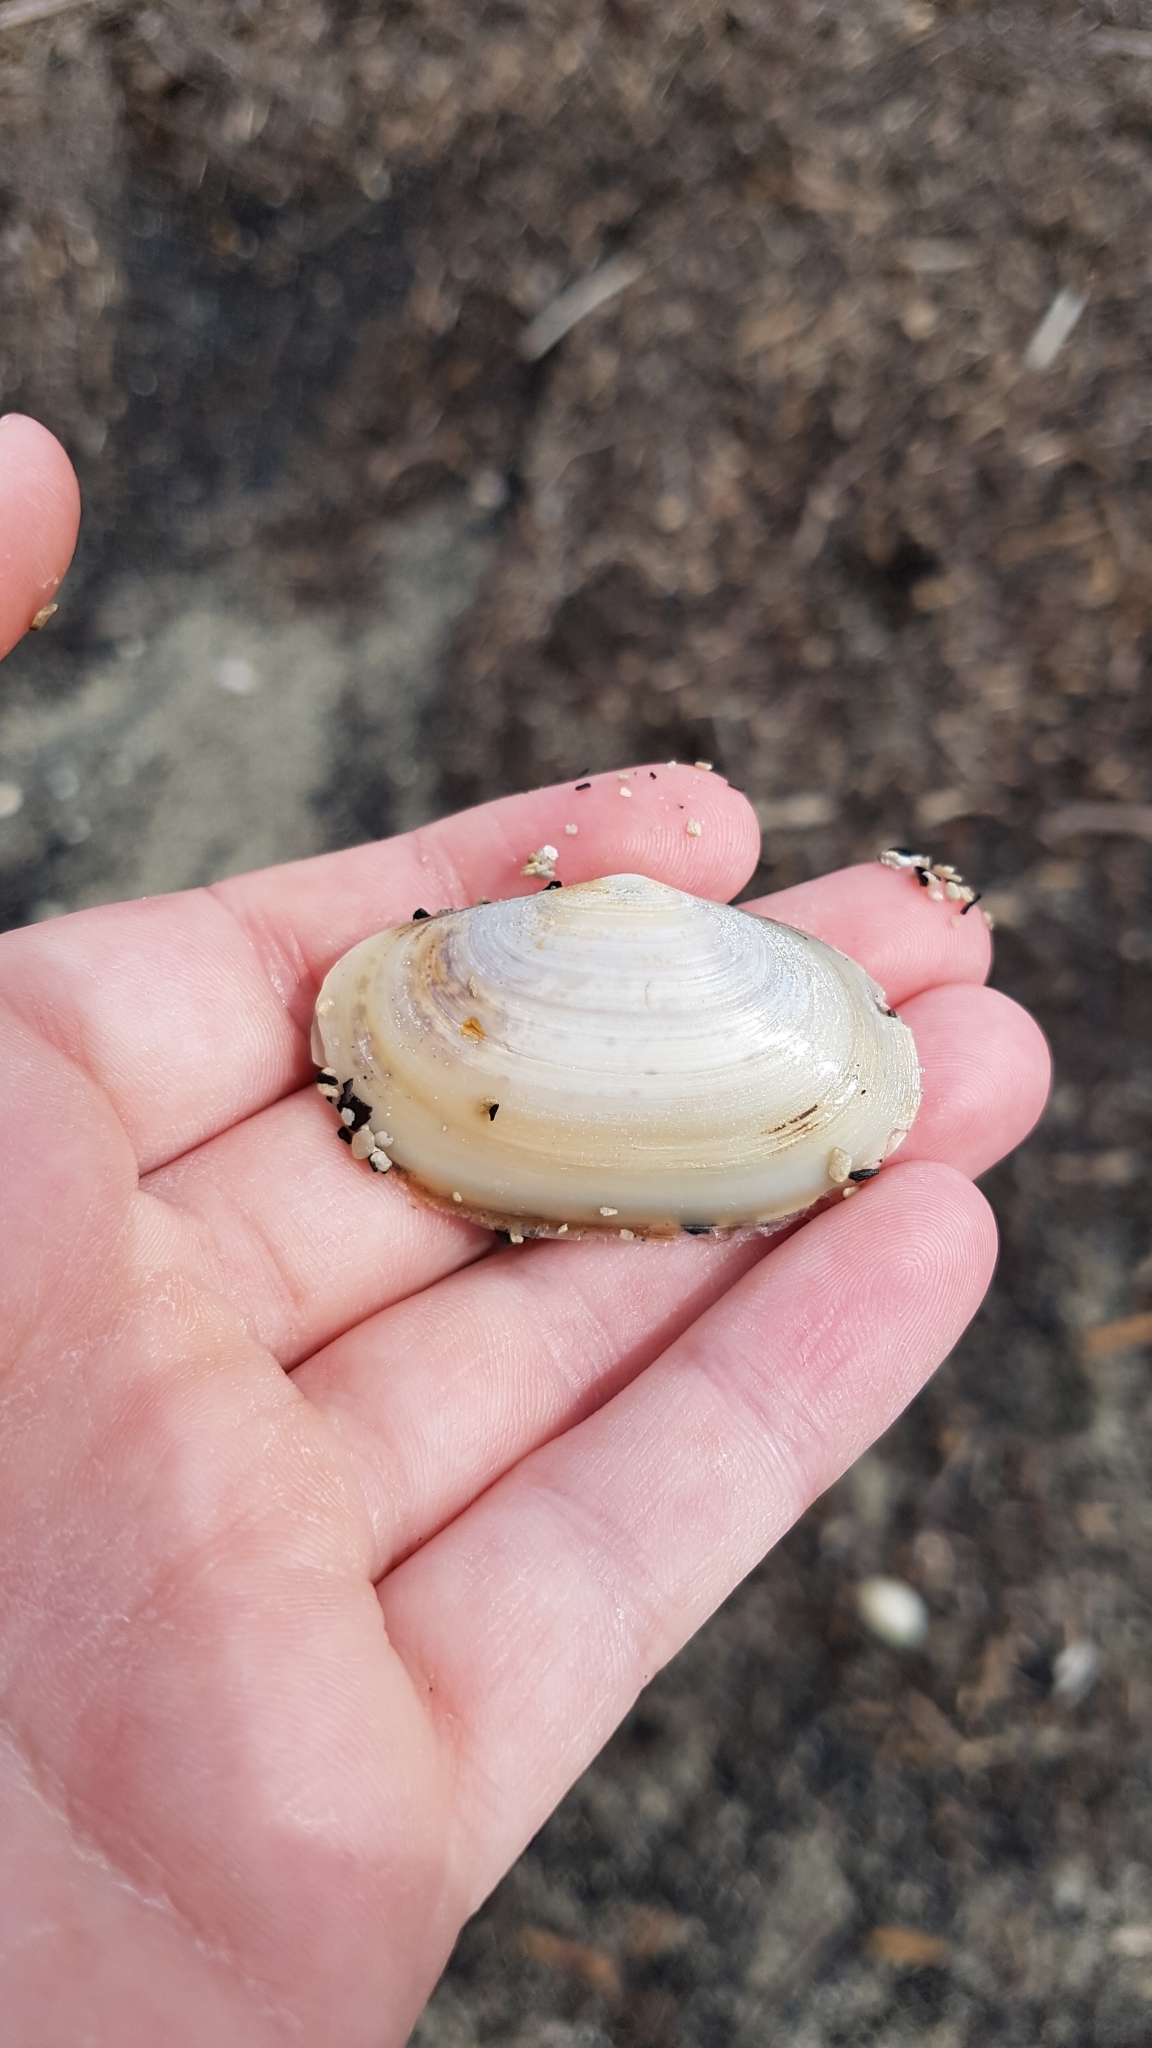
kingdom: Animalia
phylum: Mollusca
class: Bivalvia
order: Venerida
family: Mesodesmatidae
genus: Paphies
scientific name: Paphies australis
